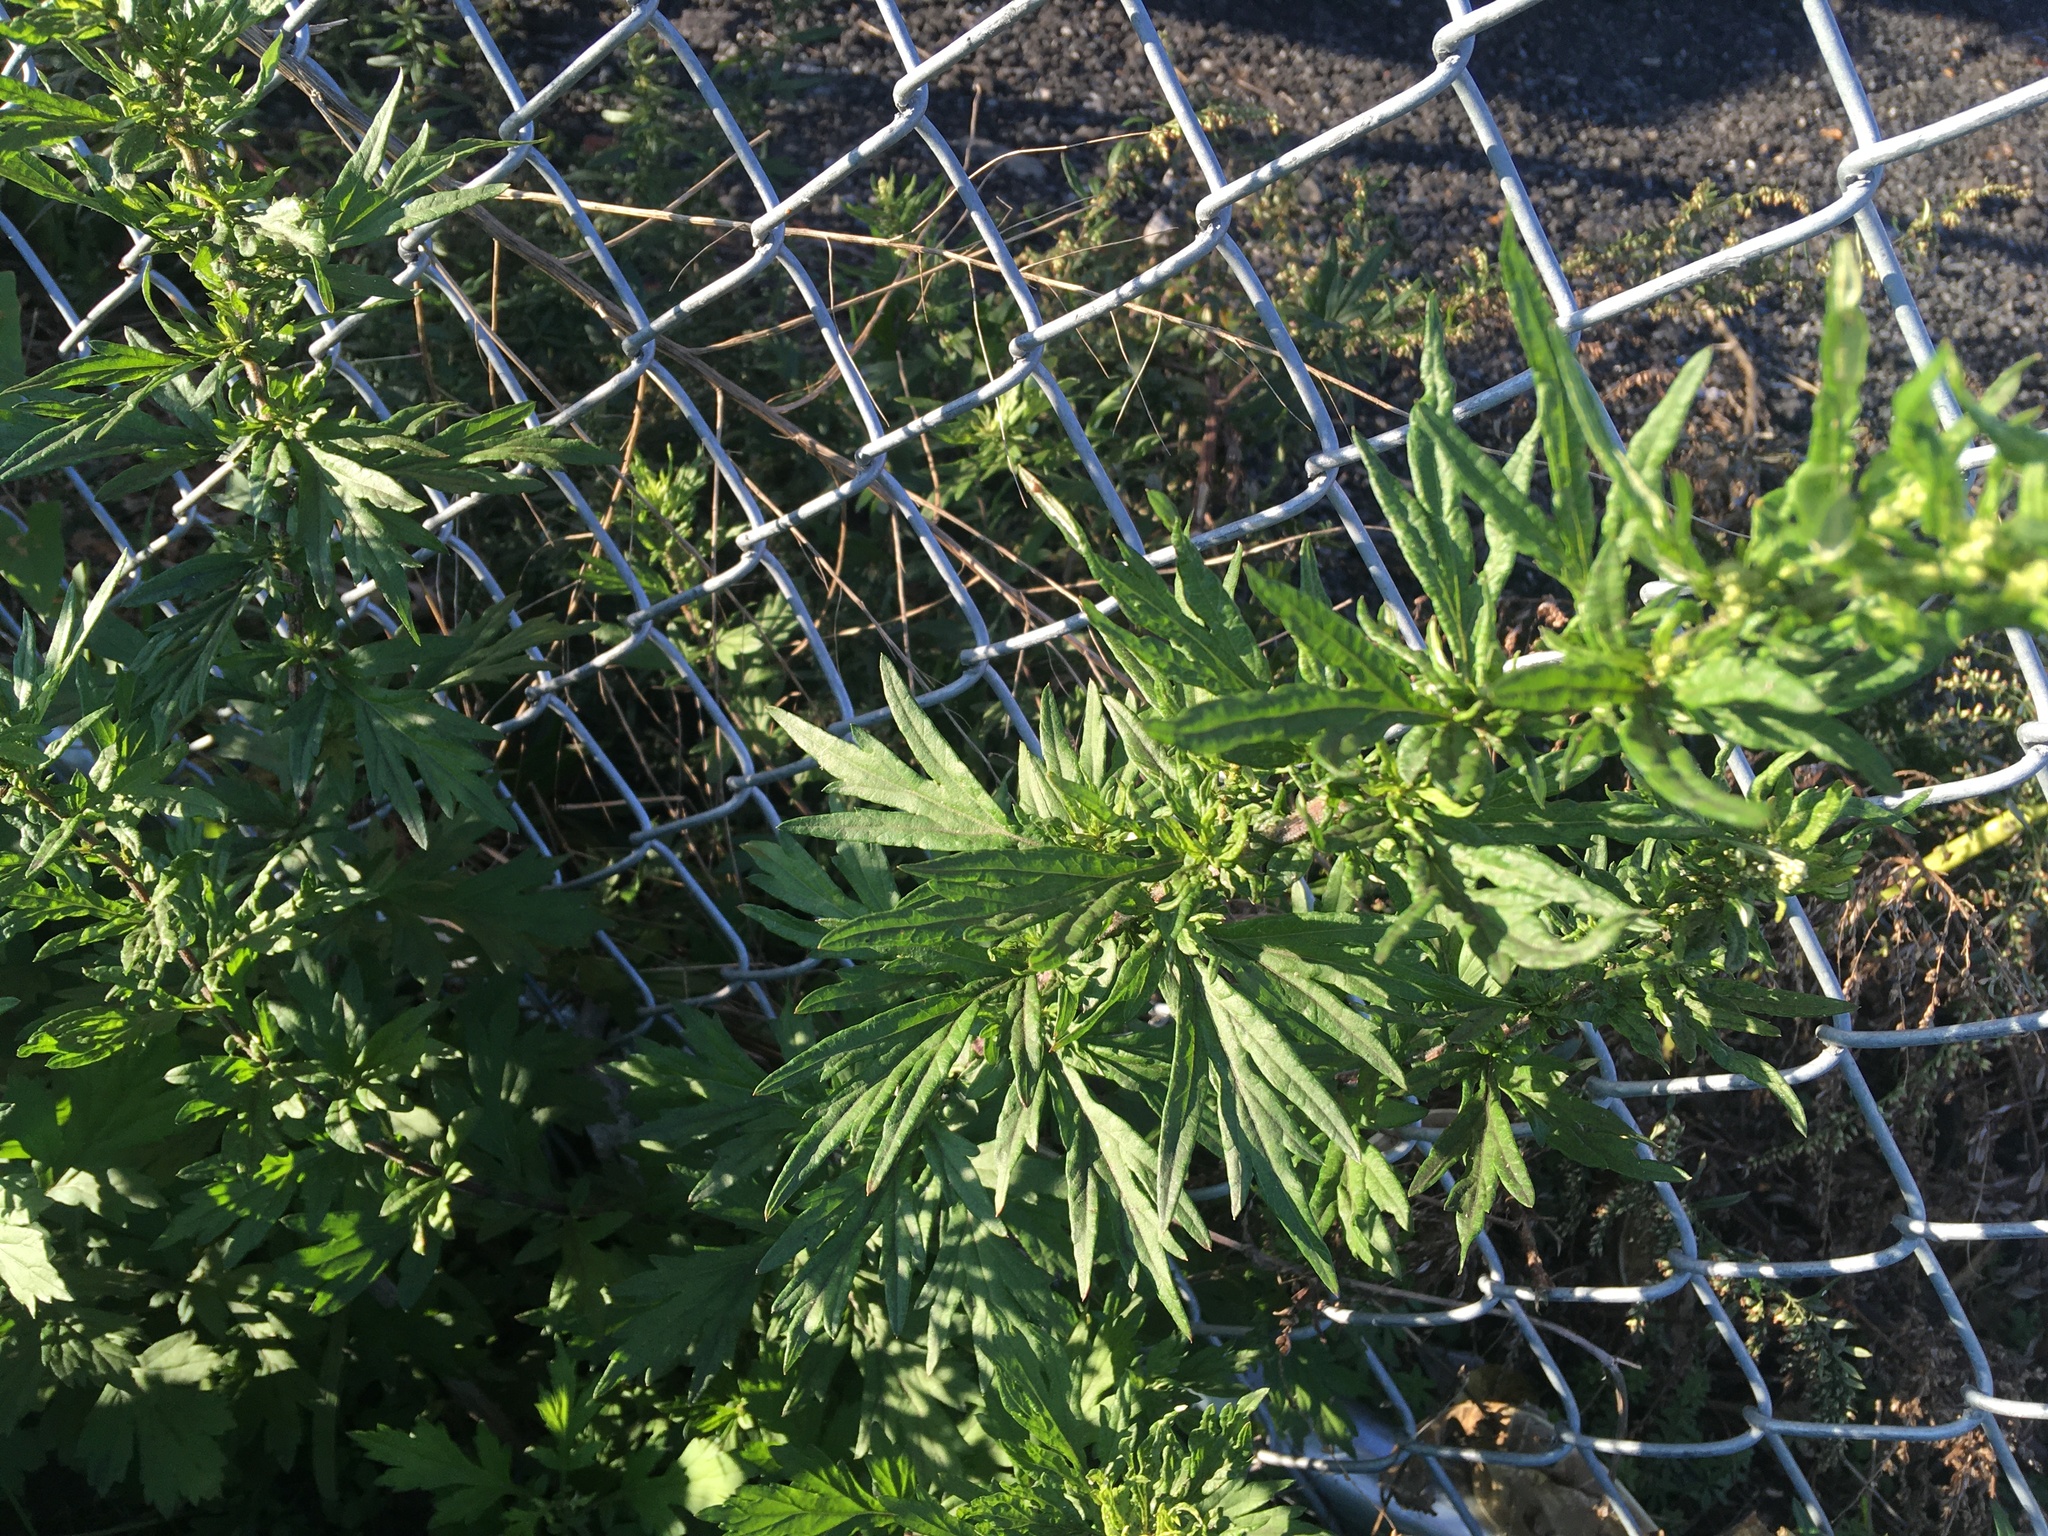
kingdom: Plantae
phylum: Tracheophyta
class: Magnoliopsida
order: Asterales
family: Asteraceae
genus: Artemisia
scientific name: Artemisia vulgaris
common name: Mugwort
